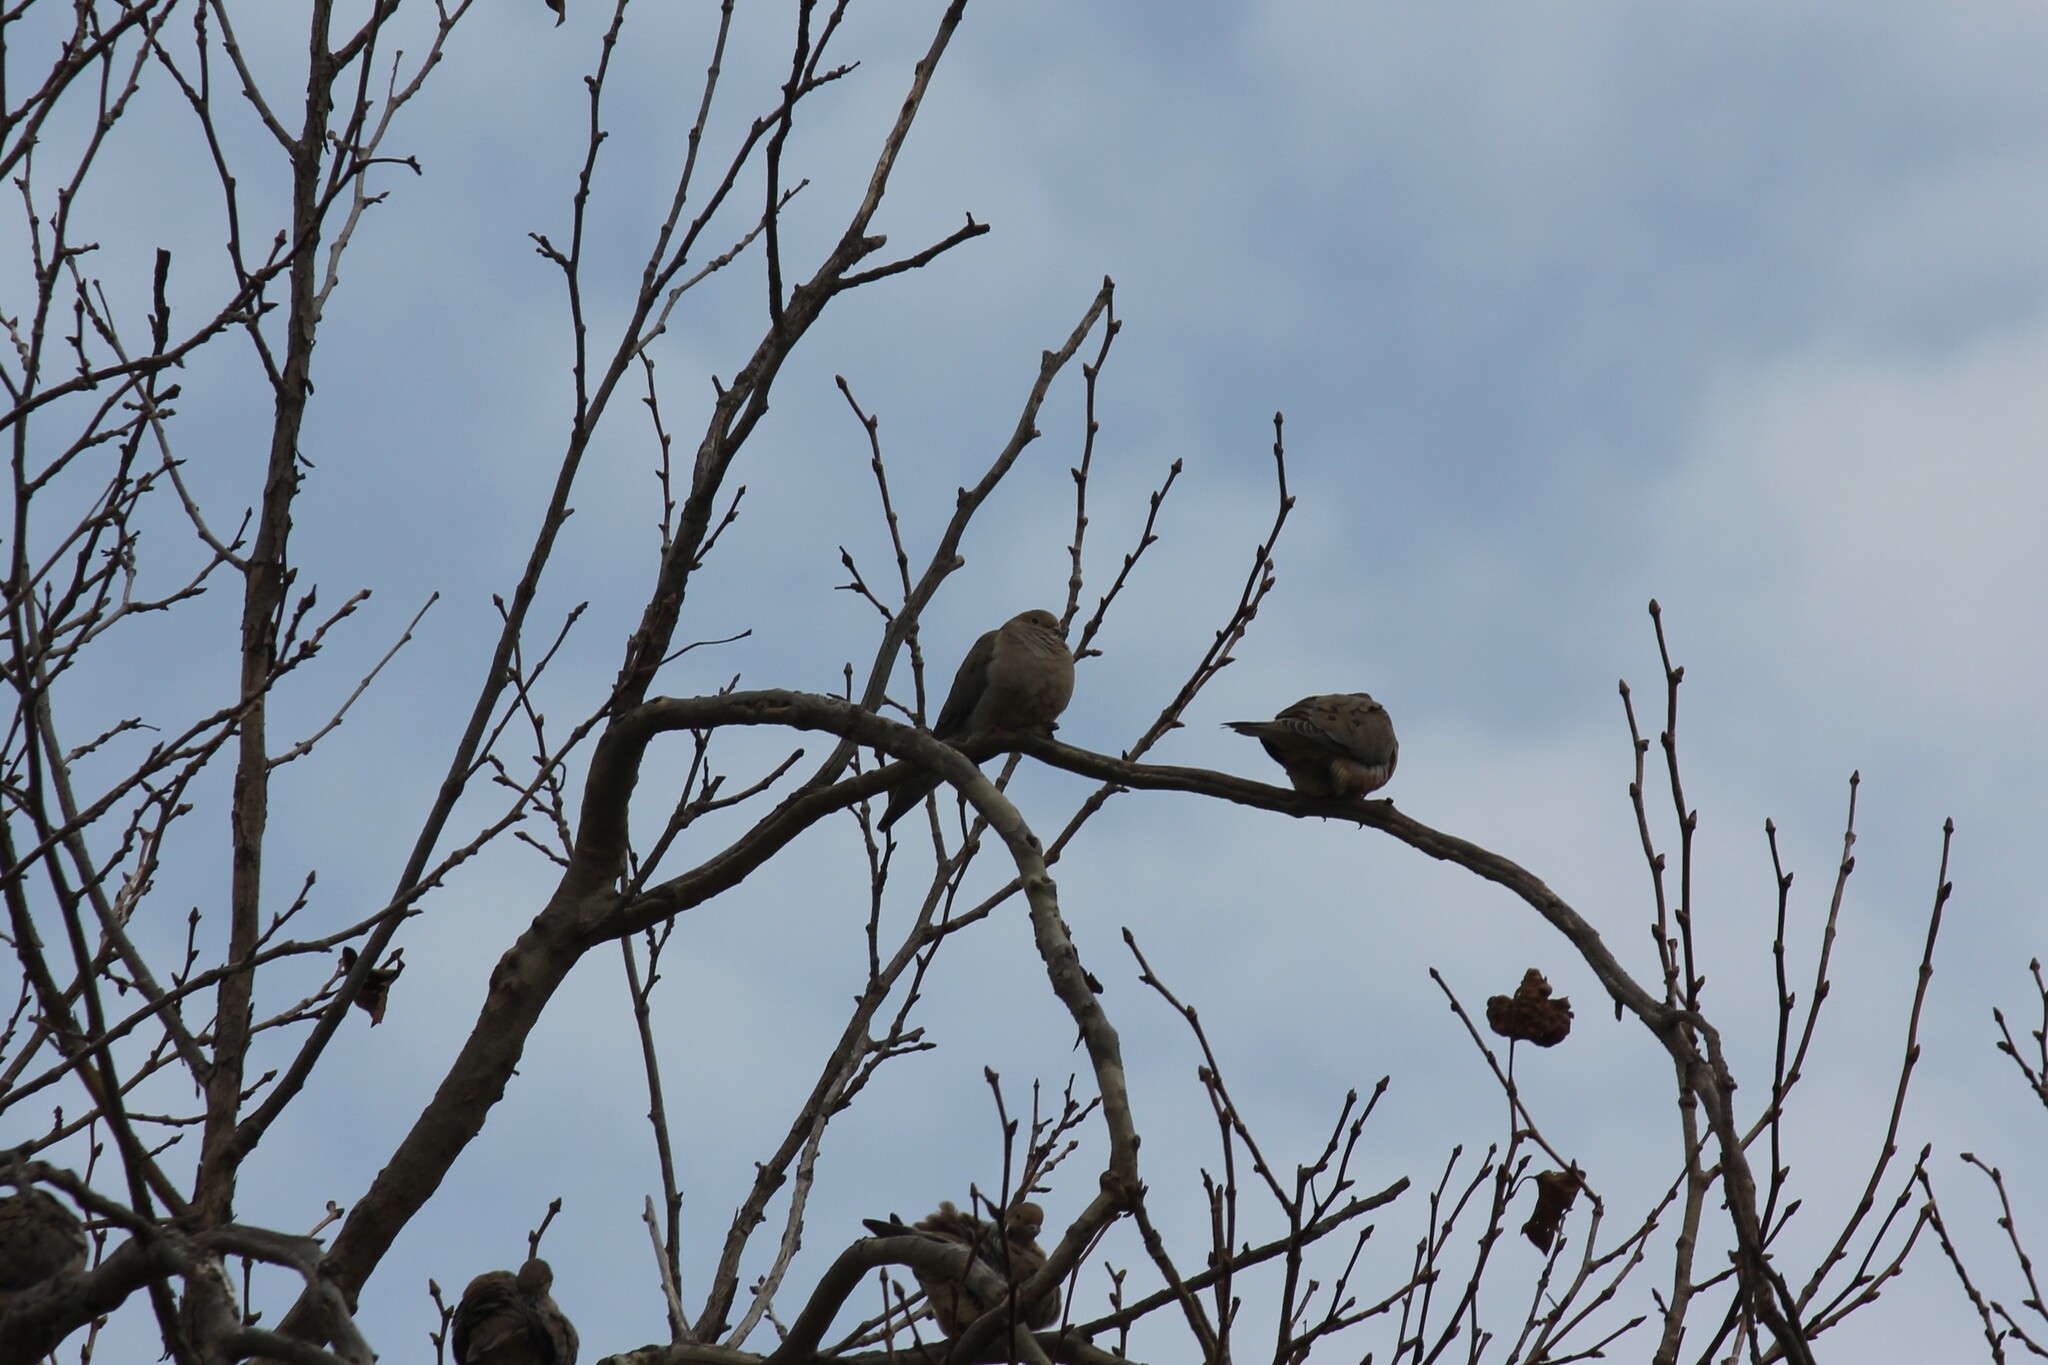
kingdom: Animalia
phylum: Chordata
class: Aves
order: Columbiformes
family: Columbidae
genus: Zenaida
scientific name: Zenaida macroura
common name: Mourning dove
